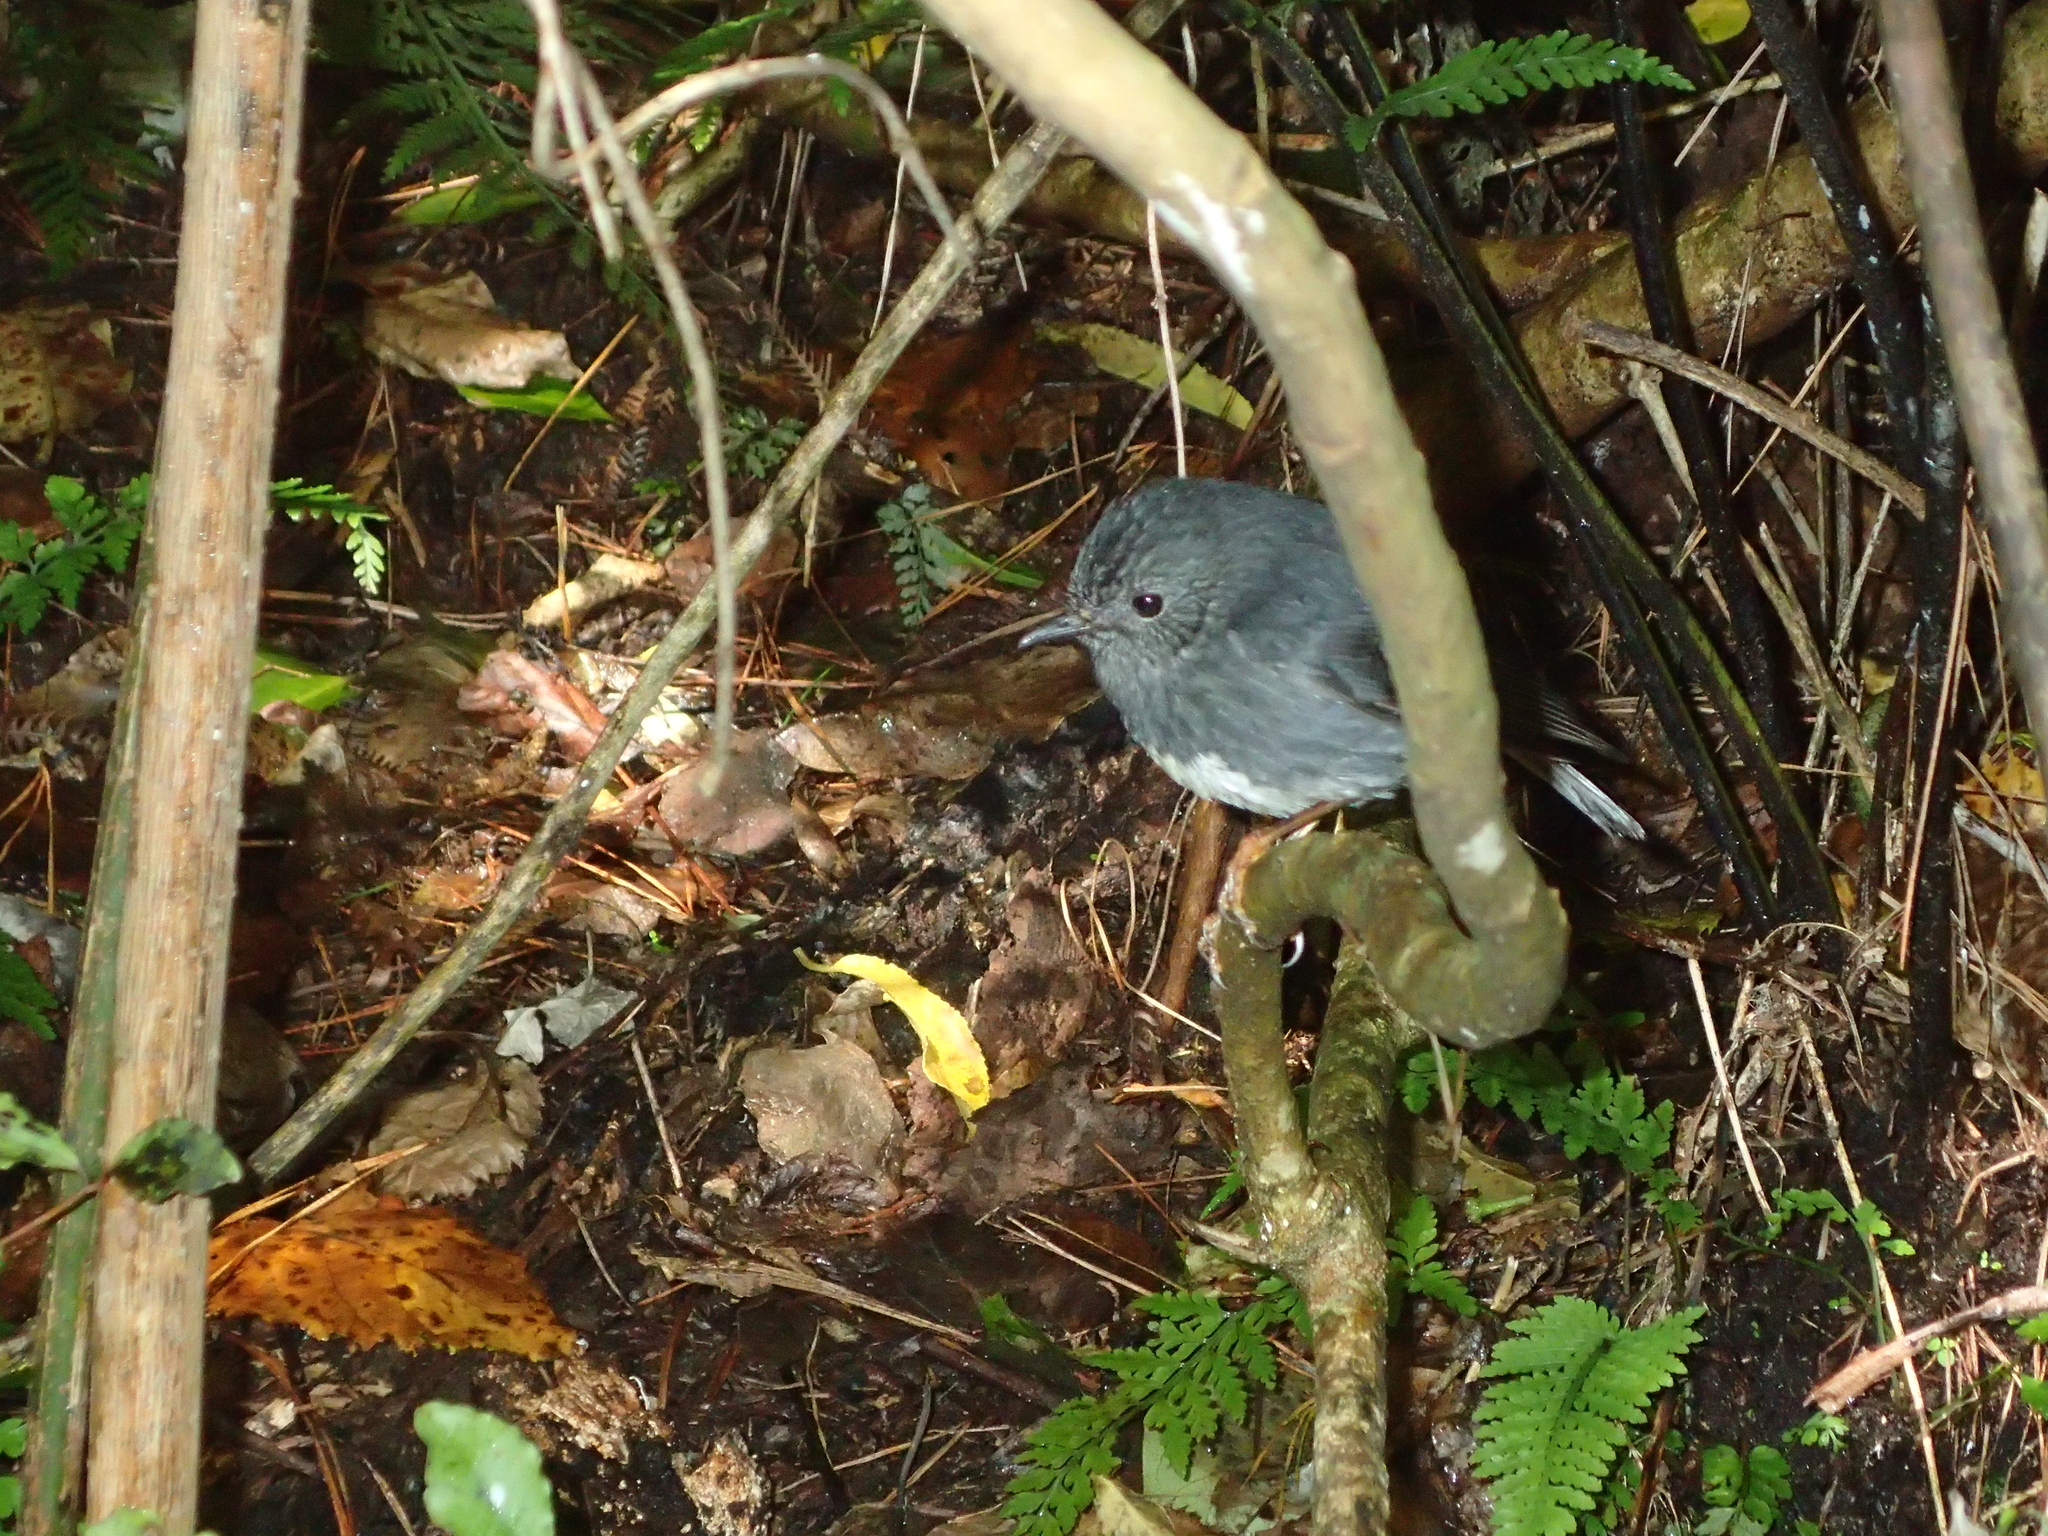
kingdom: Animalia
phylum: Chordata
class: Aves
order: Passeriformes
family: Petroicidae
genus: Petroica
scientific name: Petroica australis
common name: New zealand robin
